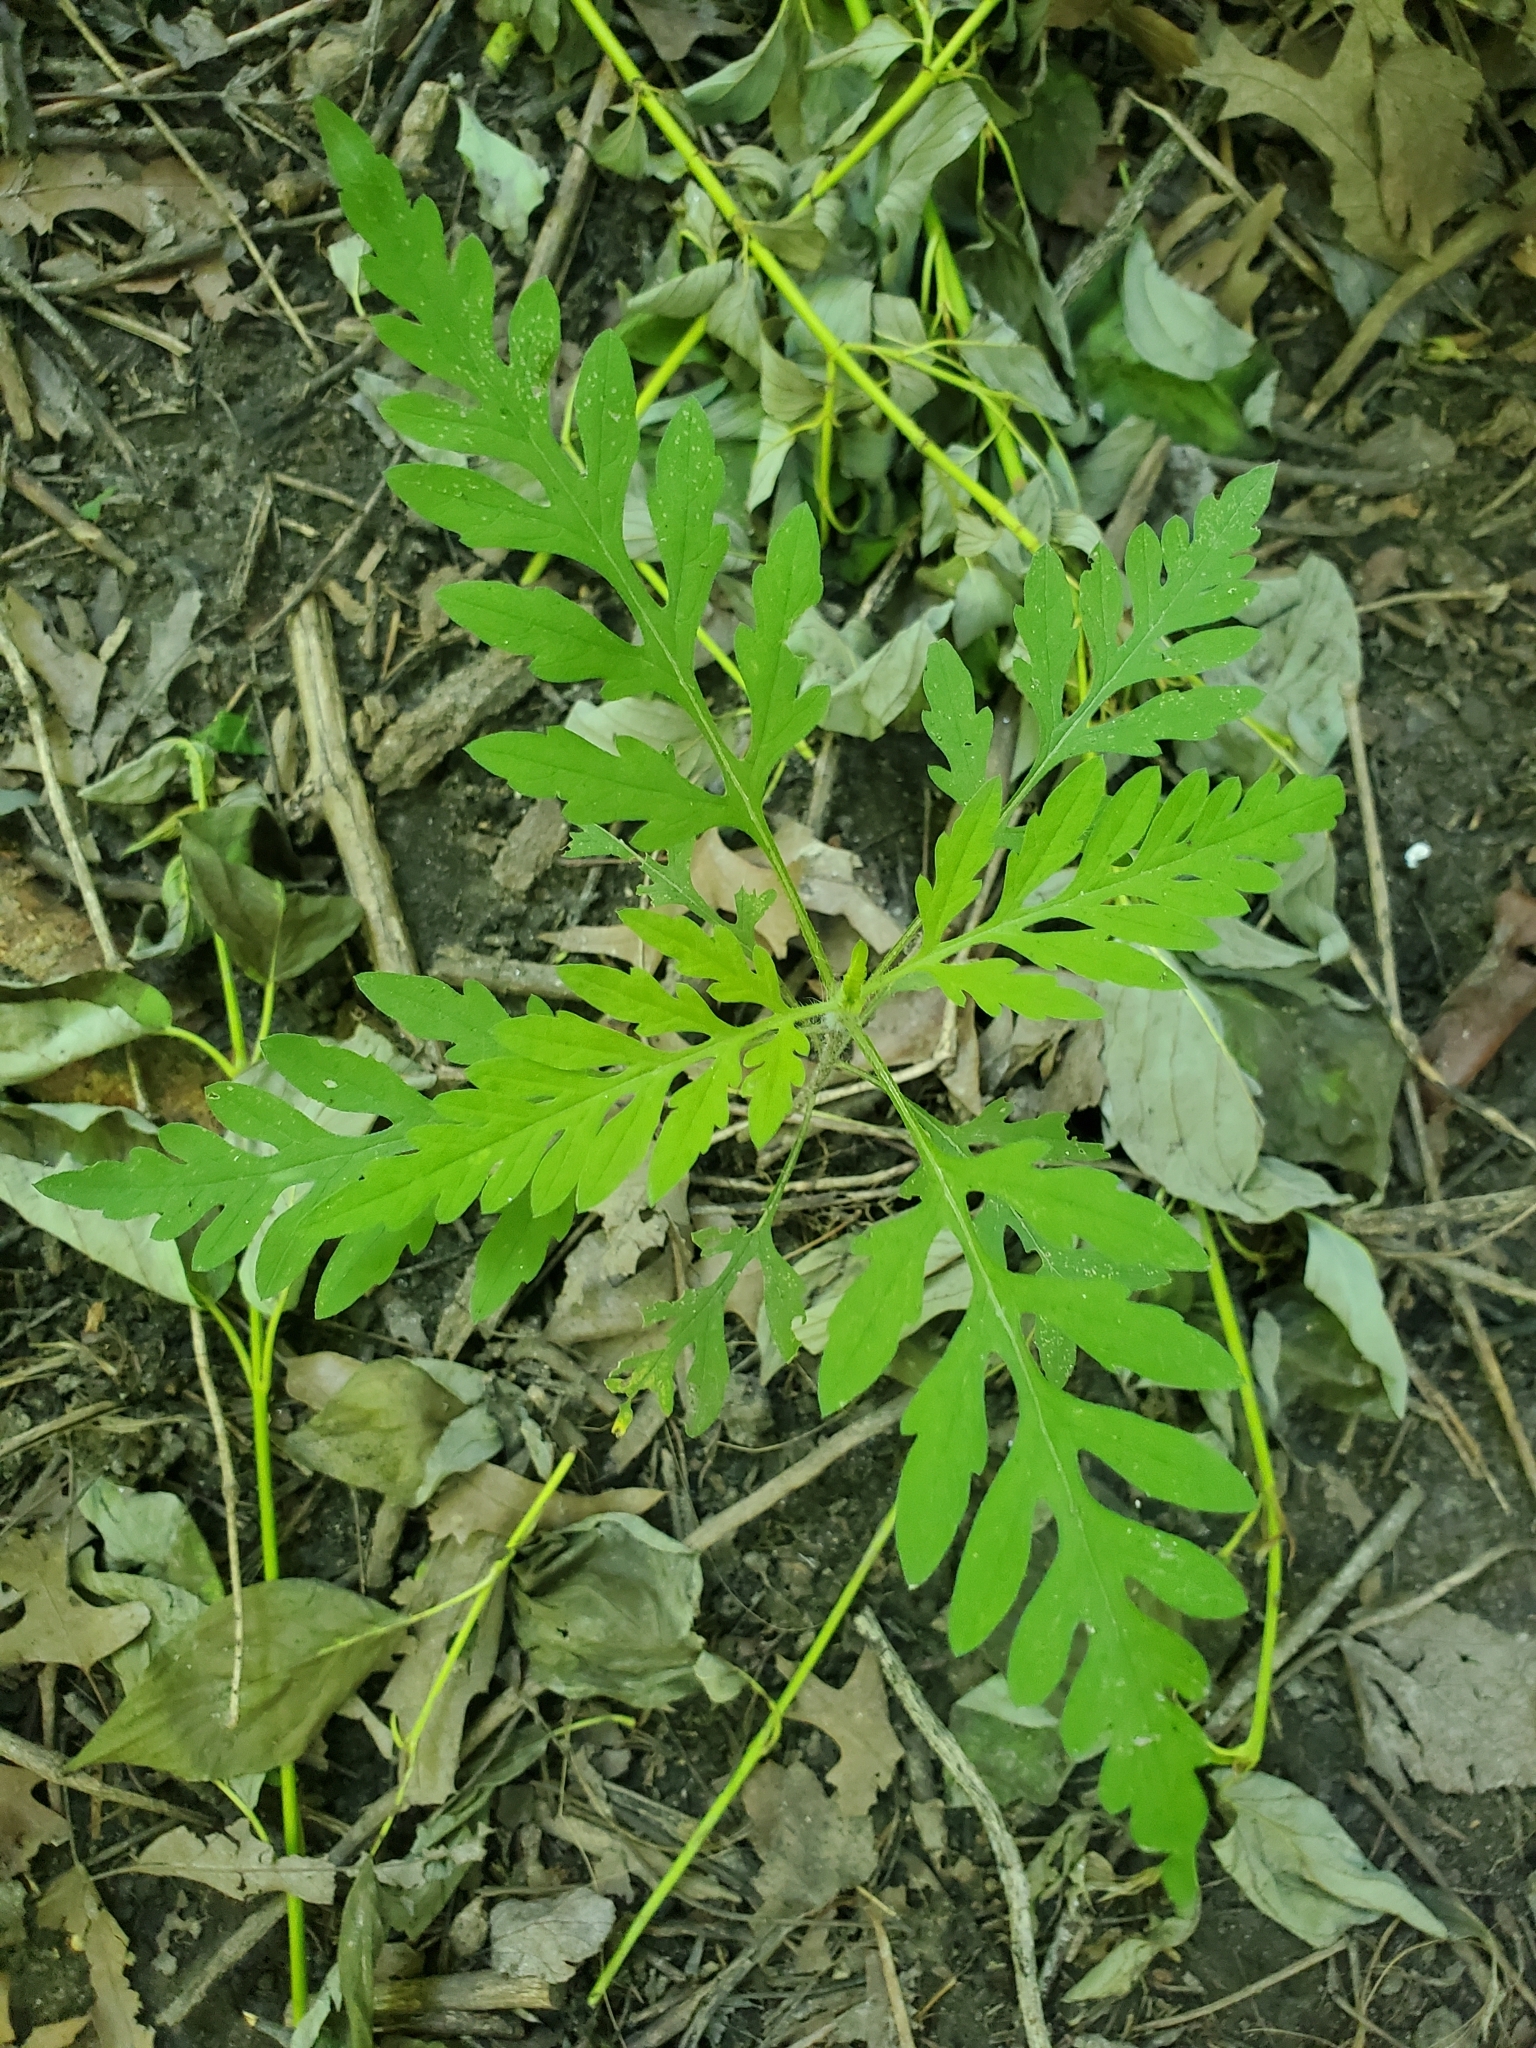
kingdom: Plantae
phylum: Tracheophyta
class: Magnoliopsida
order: Asterales
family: Asteraceae
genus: Ambrosia
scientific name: Ambrosia artemisiifolia
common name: Annual ragweed
